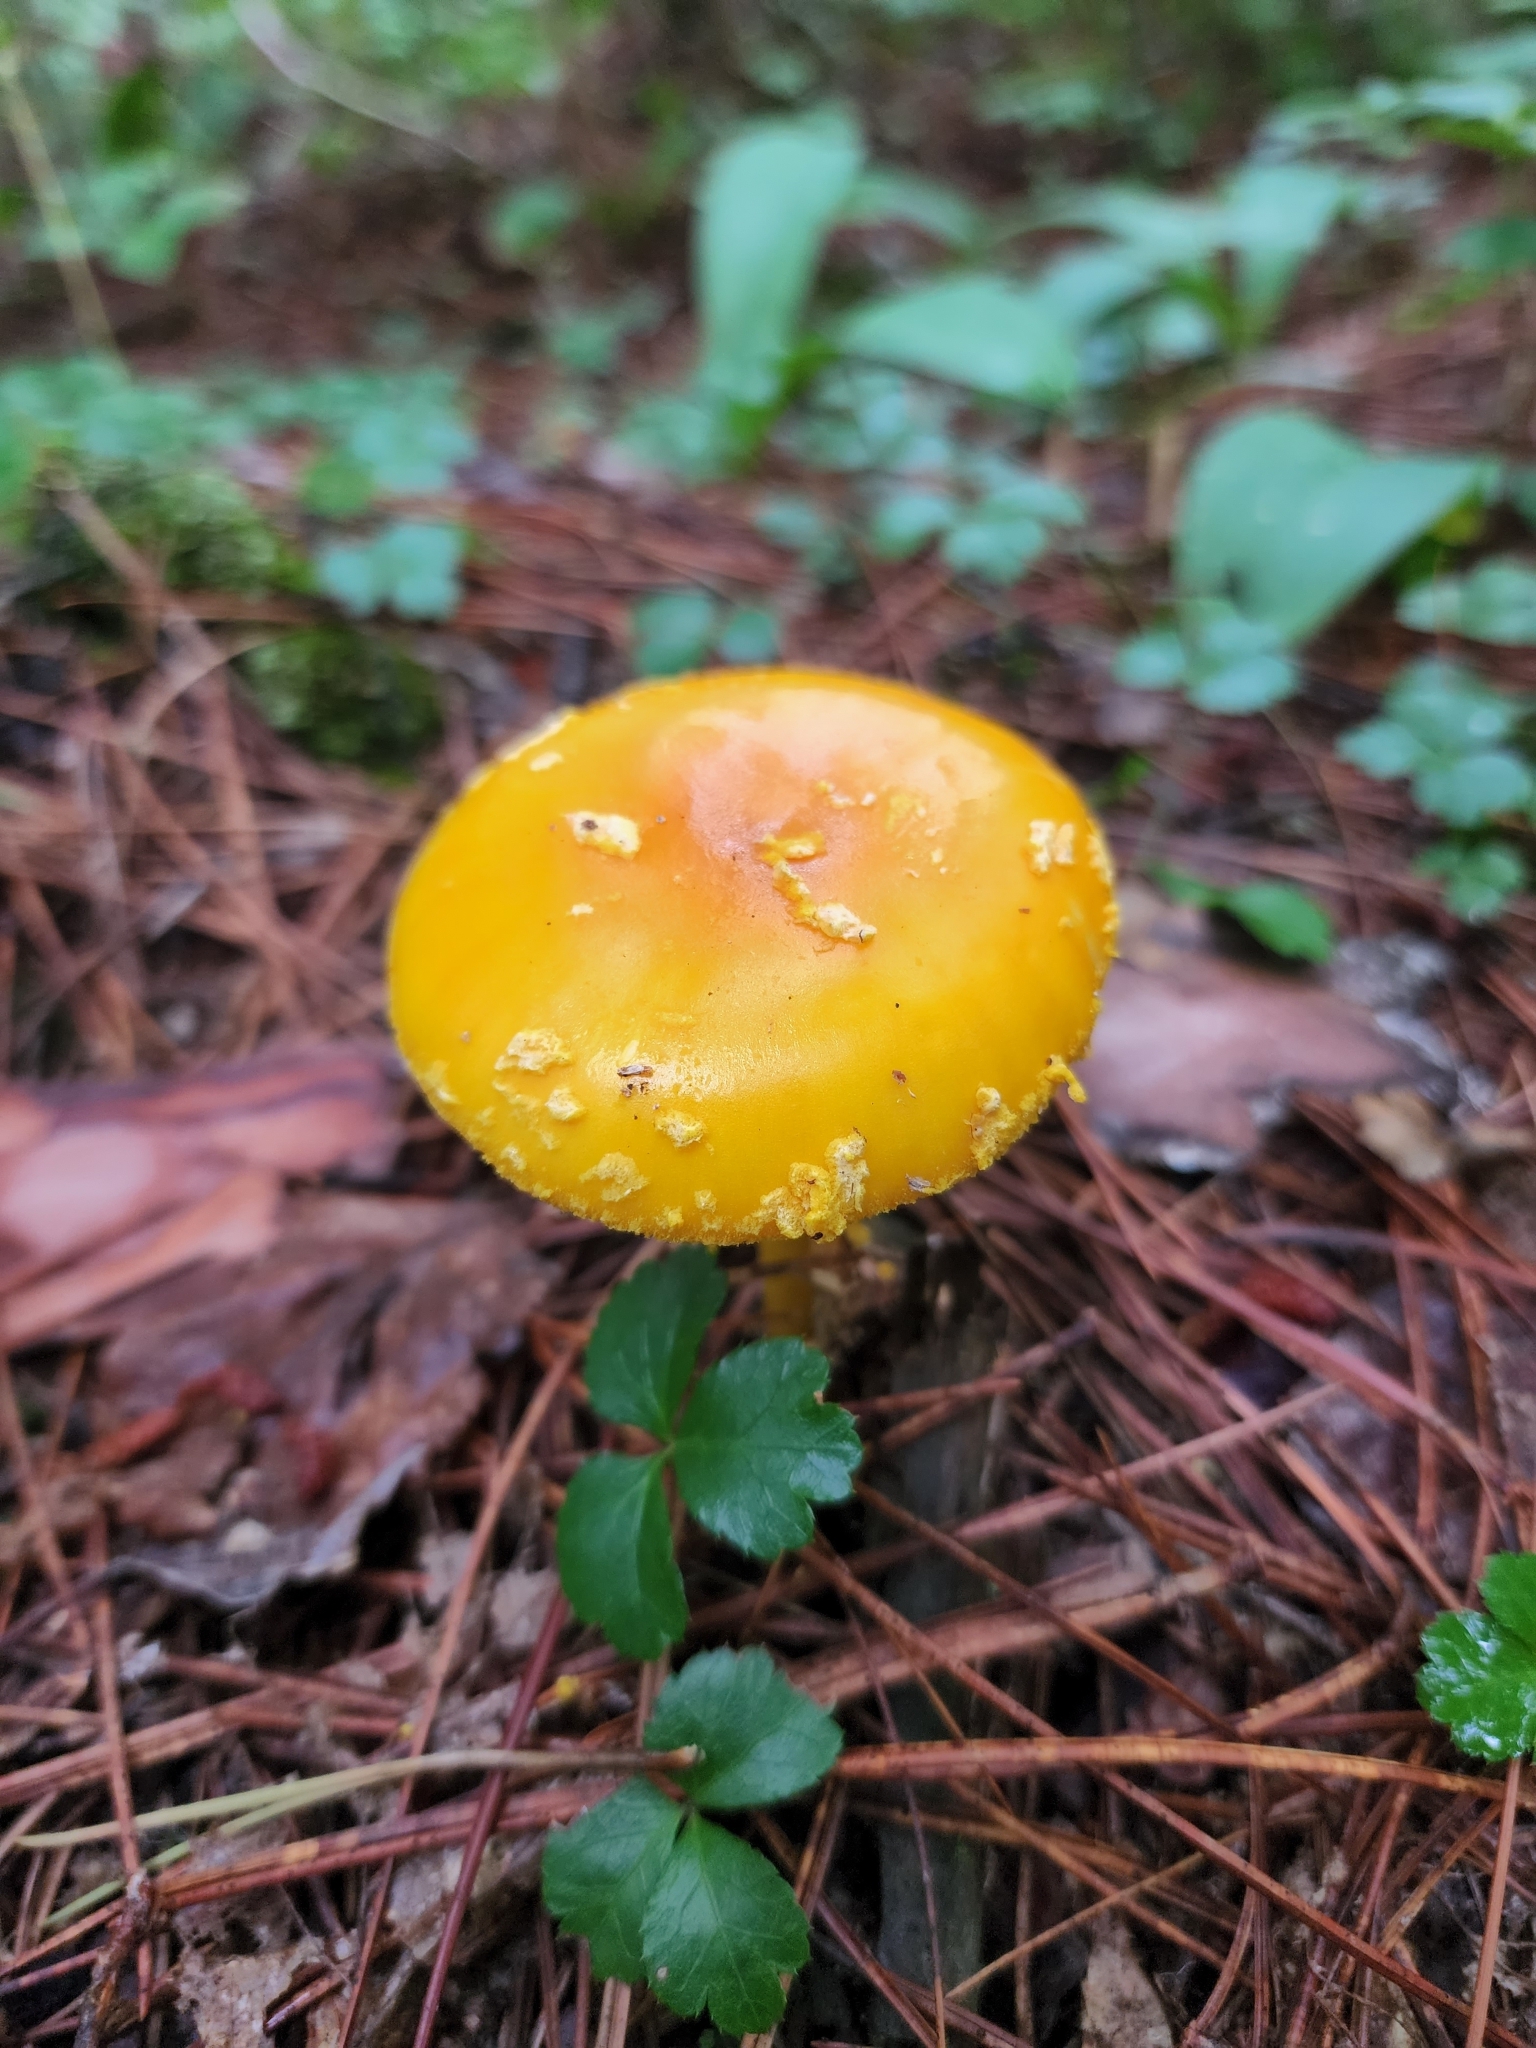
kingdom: Fungi
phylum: Basidiomycota
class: Agaricomycetes
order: Agaricales
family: Amanitaceae
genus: Amanita
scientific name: Amanita flavoconia
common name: Yellow patches
